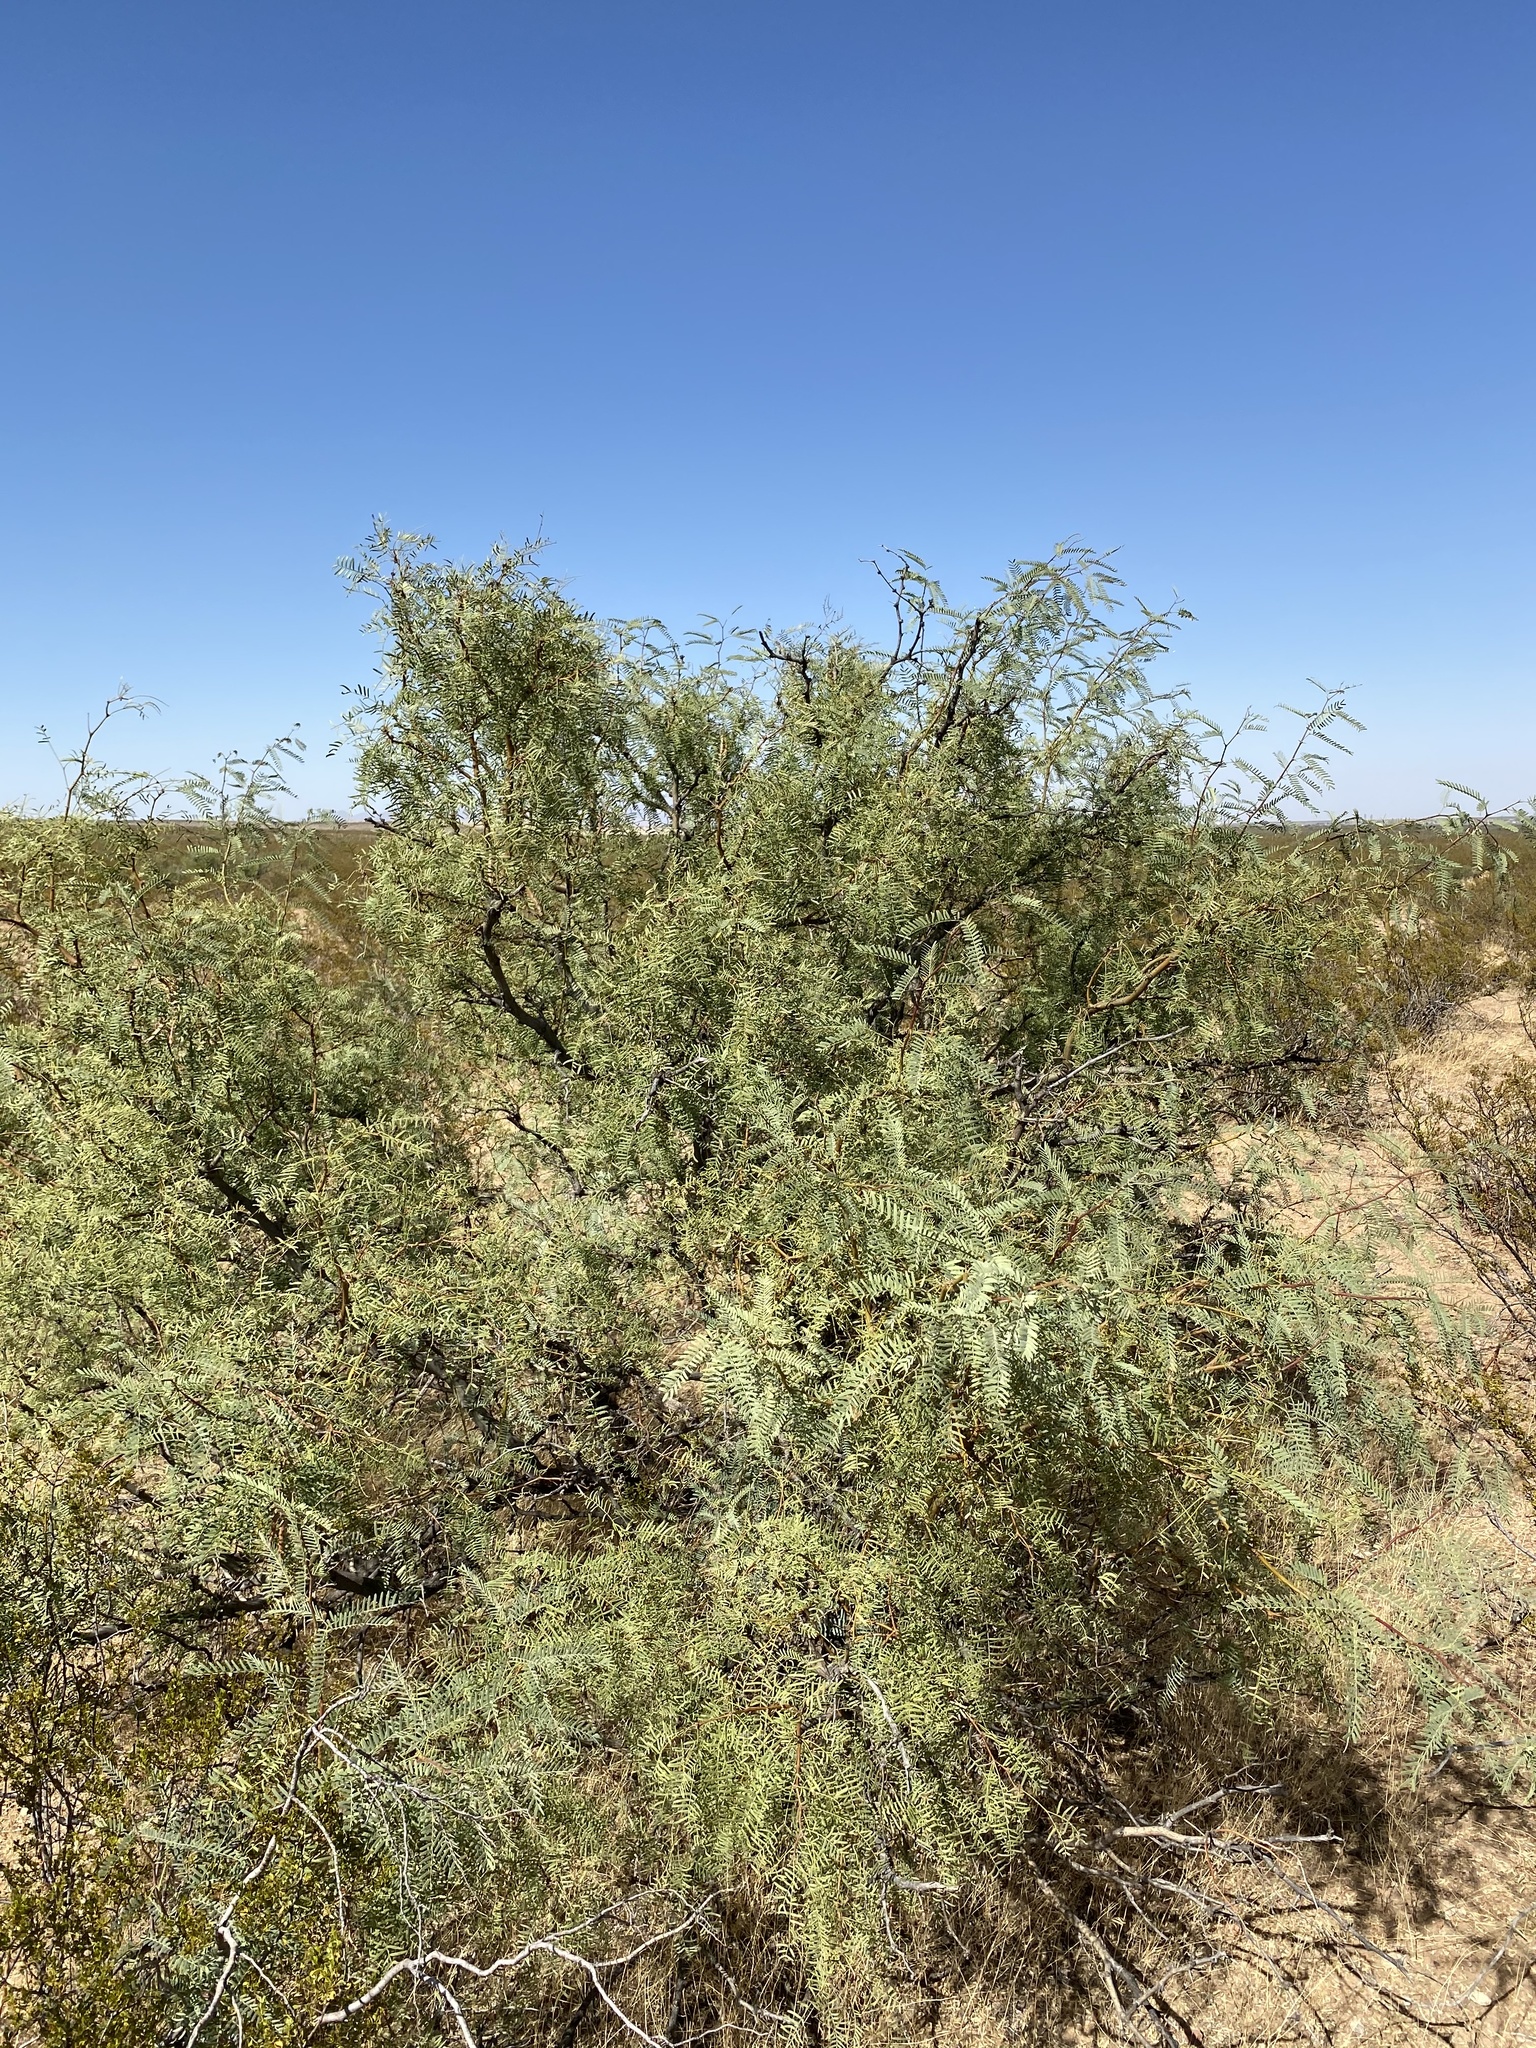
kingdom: Plantae
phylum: Tracheophyta
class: Magnoliopsida
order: Fabales
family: Fabaceae
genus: Prosopis
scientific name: Prosopis glandulosa
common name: Honey mesquite
